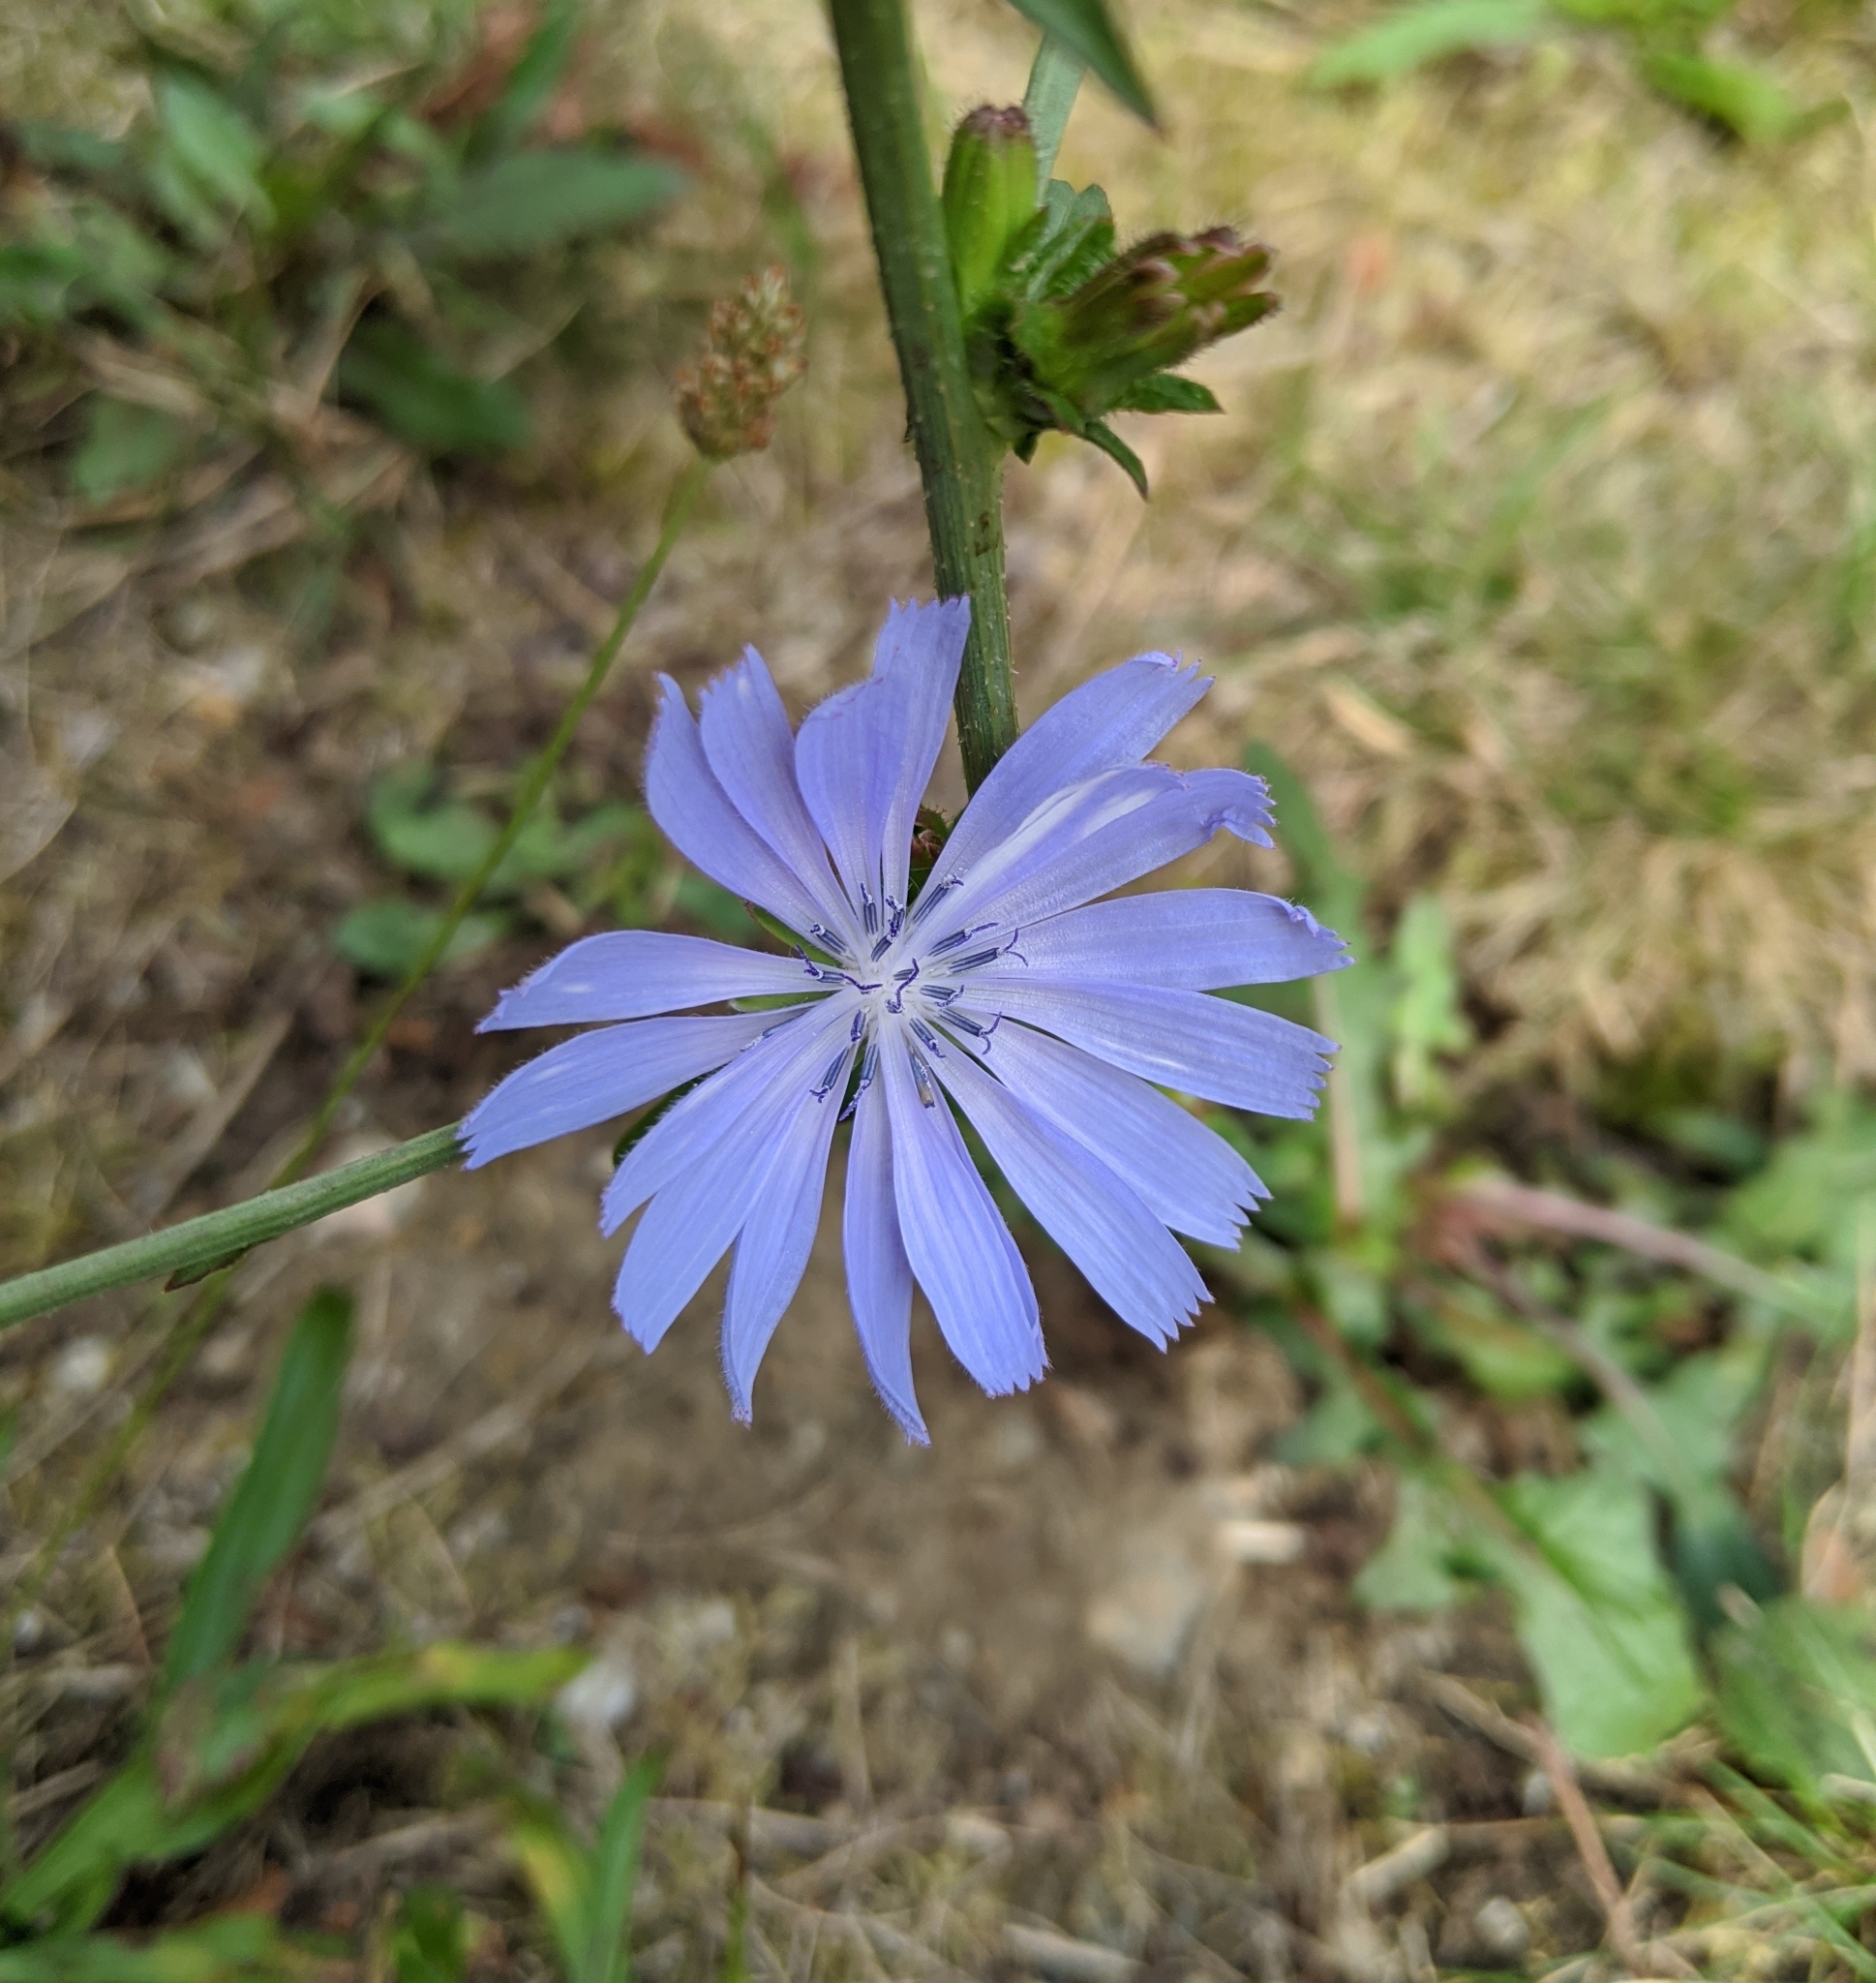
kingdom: Plantae
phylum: Tracheophyta
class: Magnoliopsida
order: Asterales
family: Asteraceae
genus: Cichorium
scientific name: Cichorium intybus
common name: Chicory
